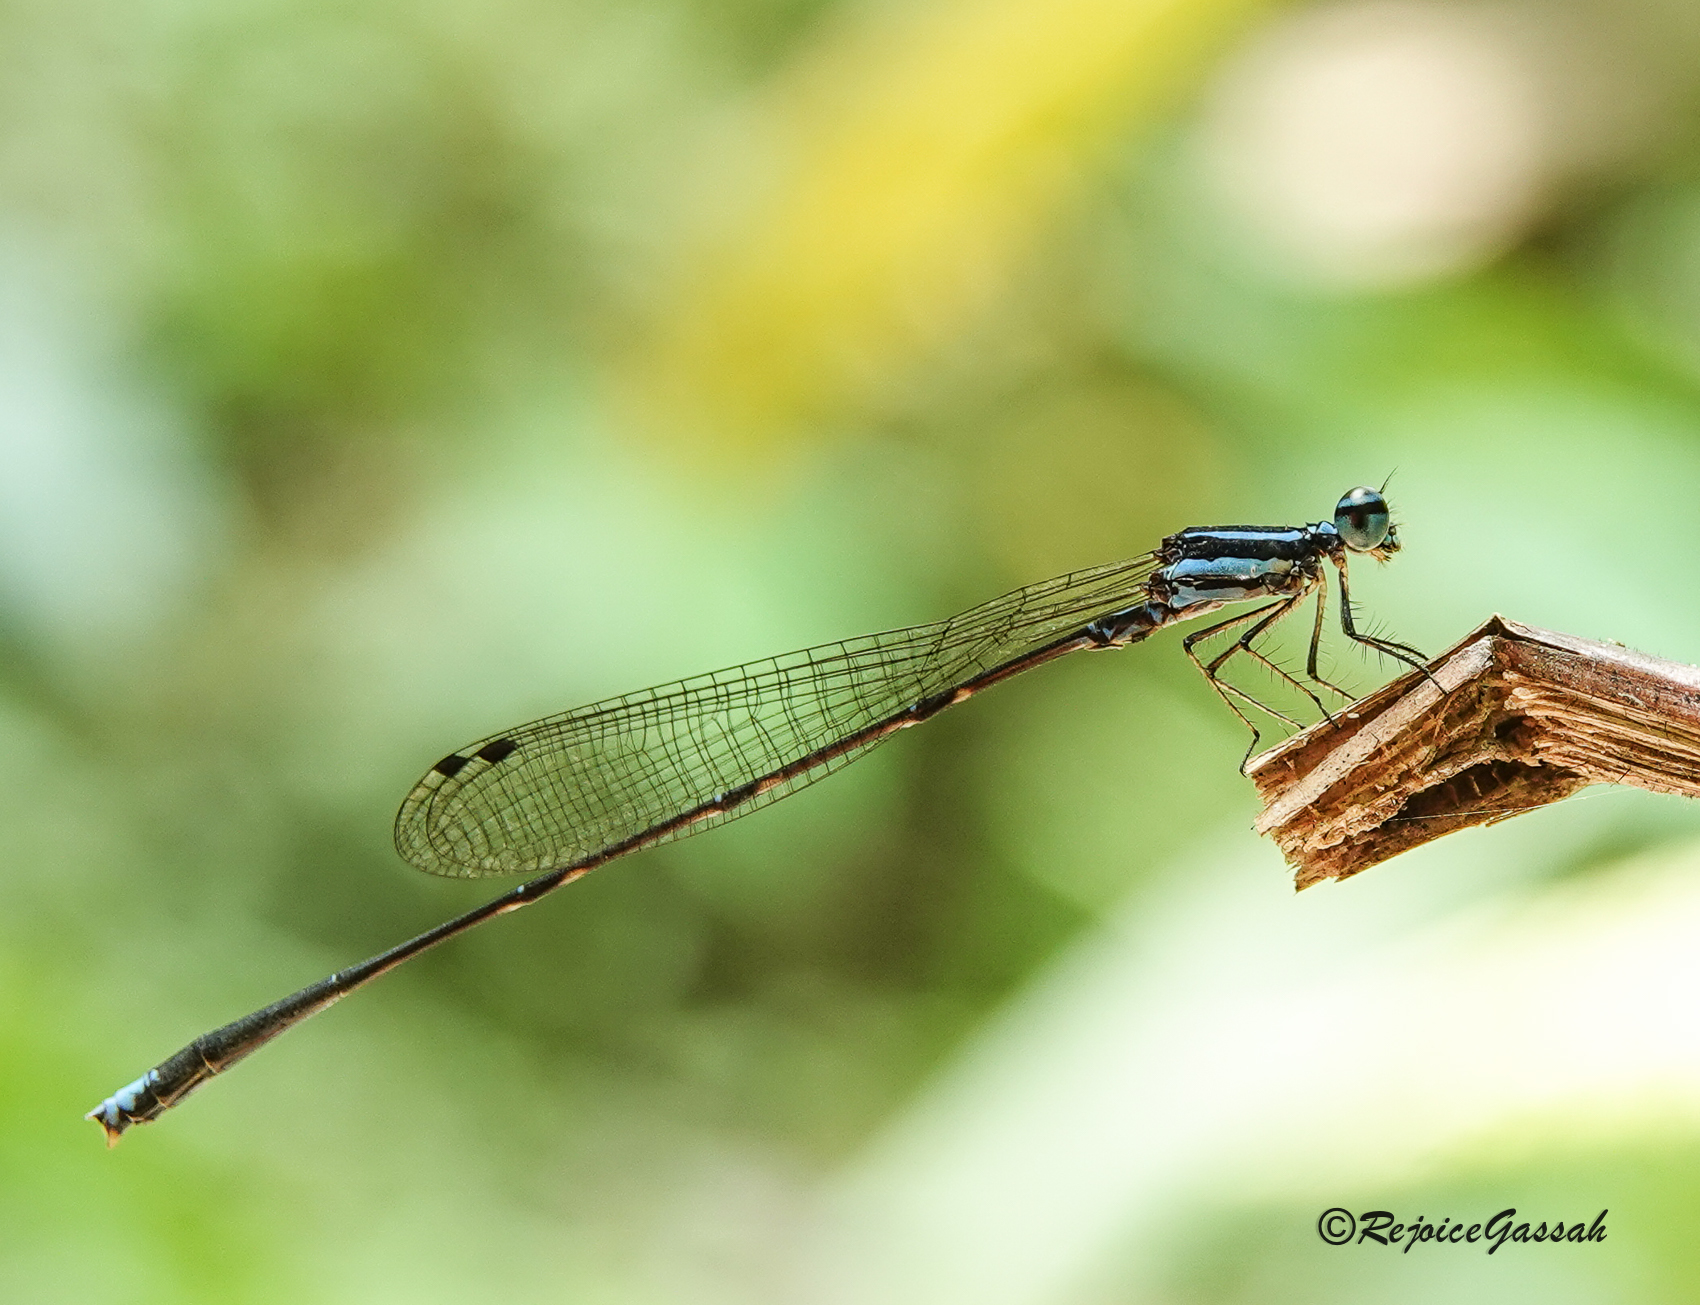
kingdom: Animalia
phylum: Arthropoda
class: Insecta
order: Odonata
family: Platycnemididae
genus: Elattoneura
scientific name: Elattoneura campioni
